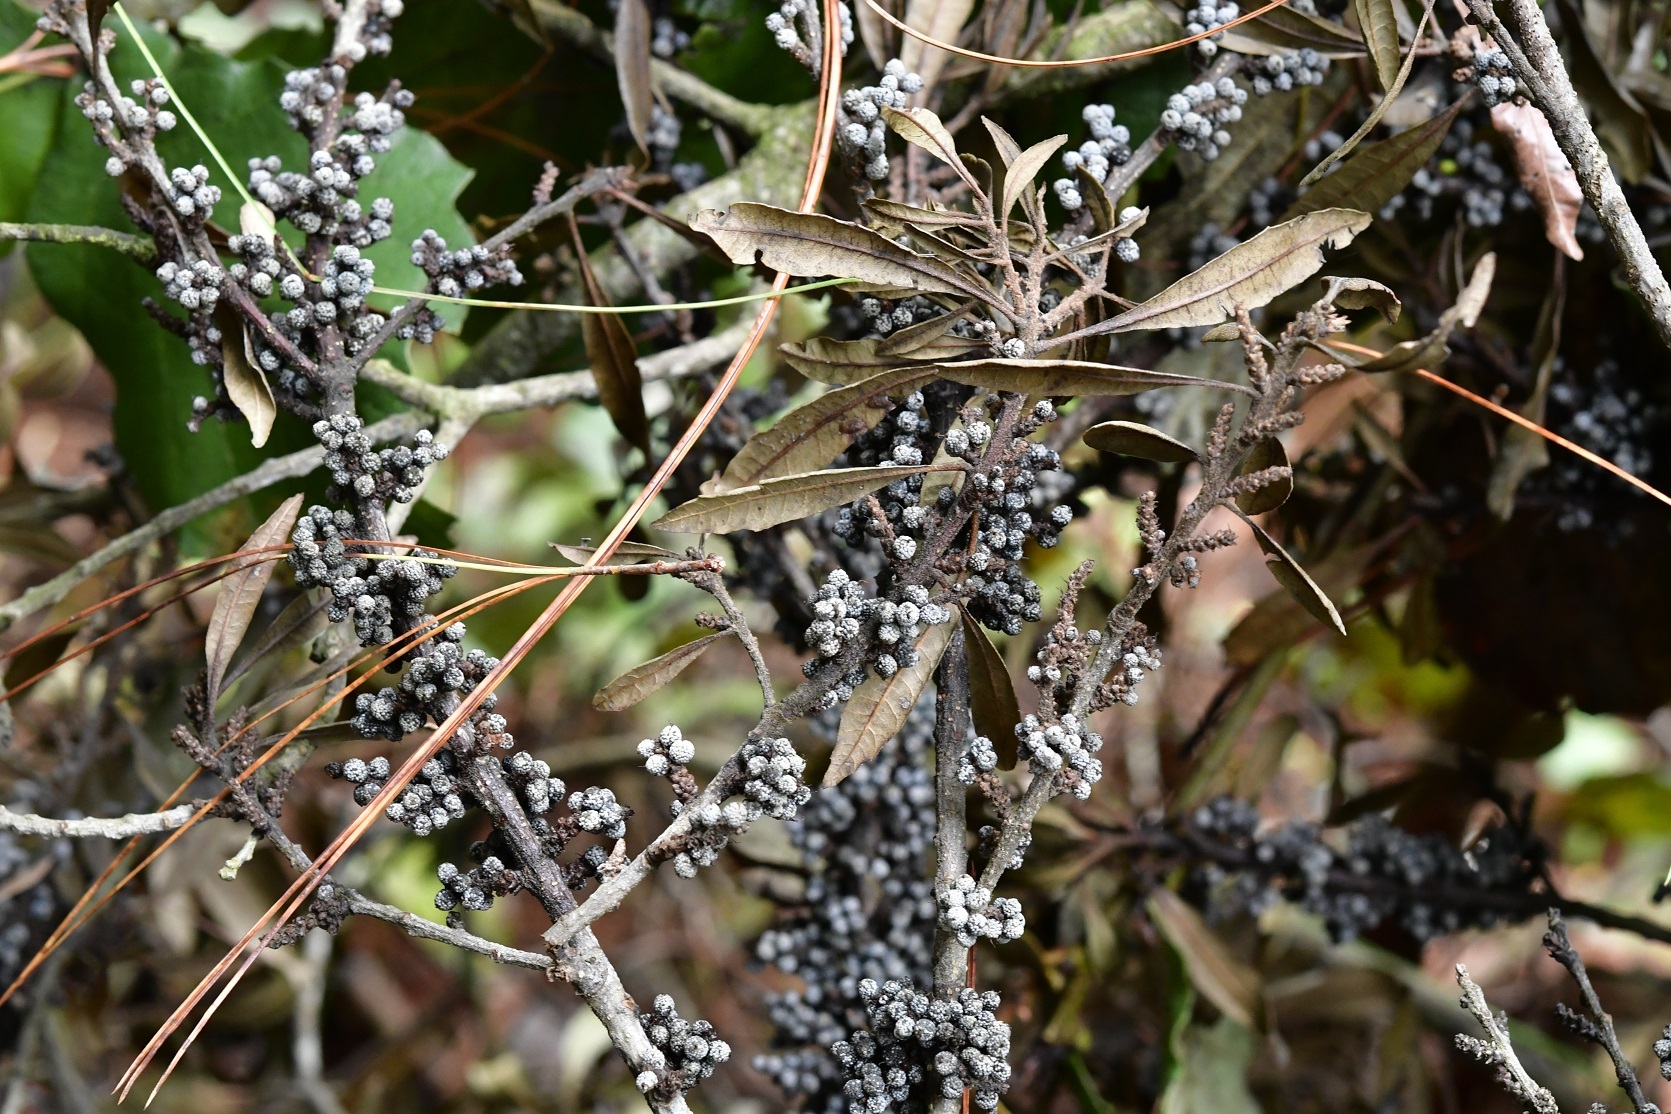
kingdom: Plantae
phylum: Tracheophyta
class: Magnoliopsida
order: Fagales
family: Myricaceae
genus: Morella
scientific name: Morella cerifera
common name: Wax myrtle
